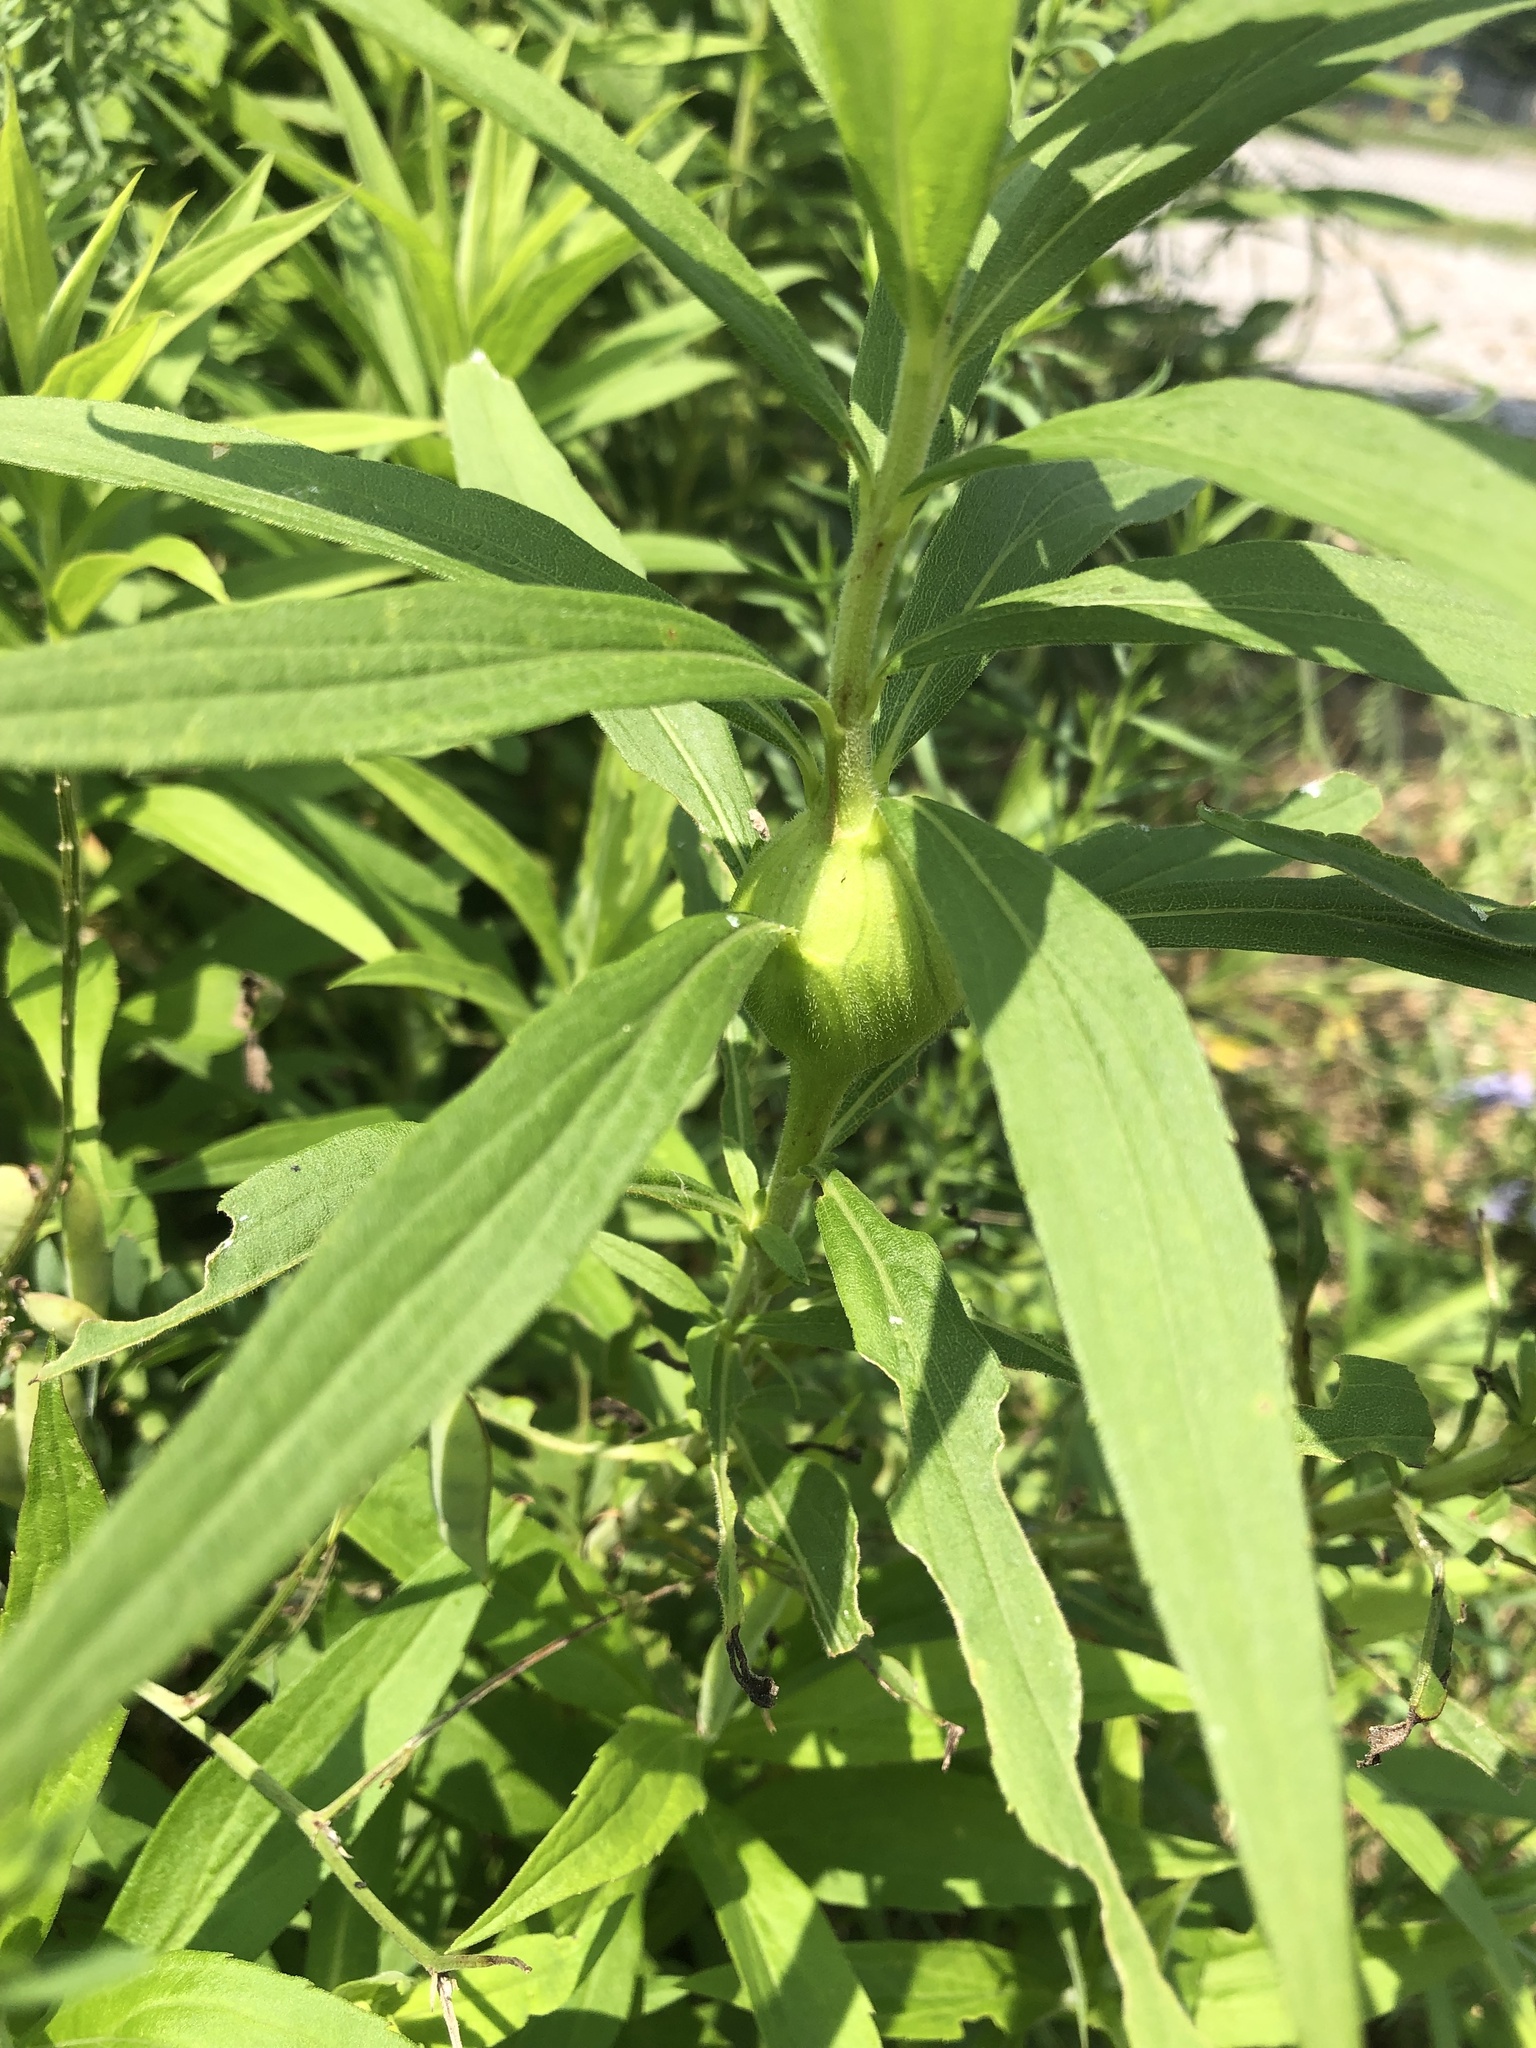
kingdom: Animalia
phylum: Arthropoda
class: Insecta
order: Diptera
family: Tephritidae
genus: Eurosta
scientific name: Eurosta solidaginis
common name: Goldenrod gall fly
